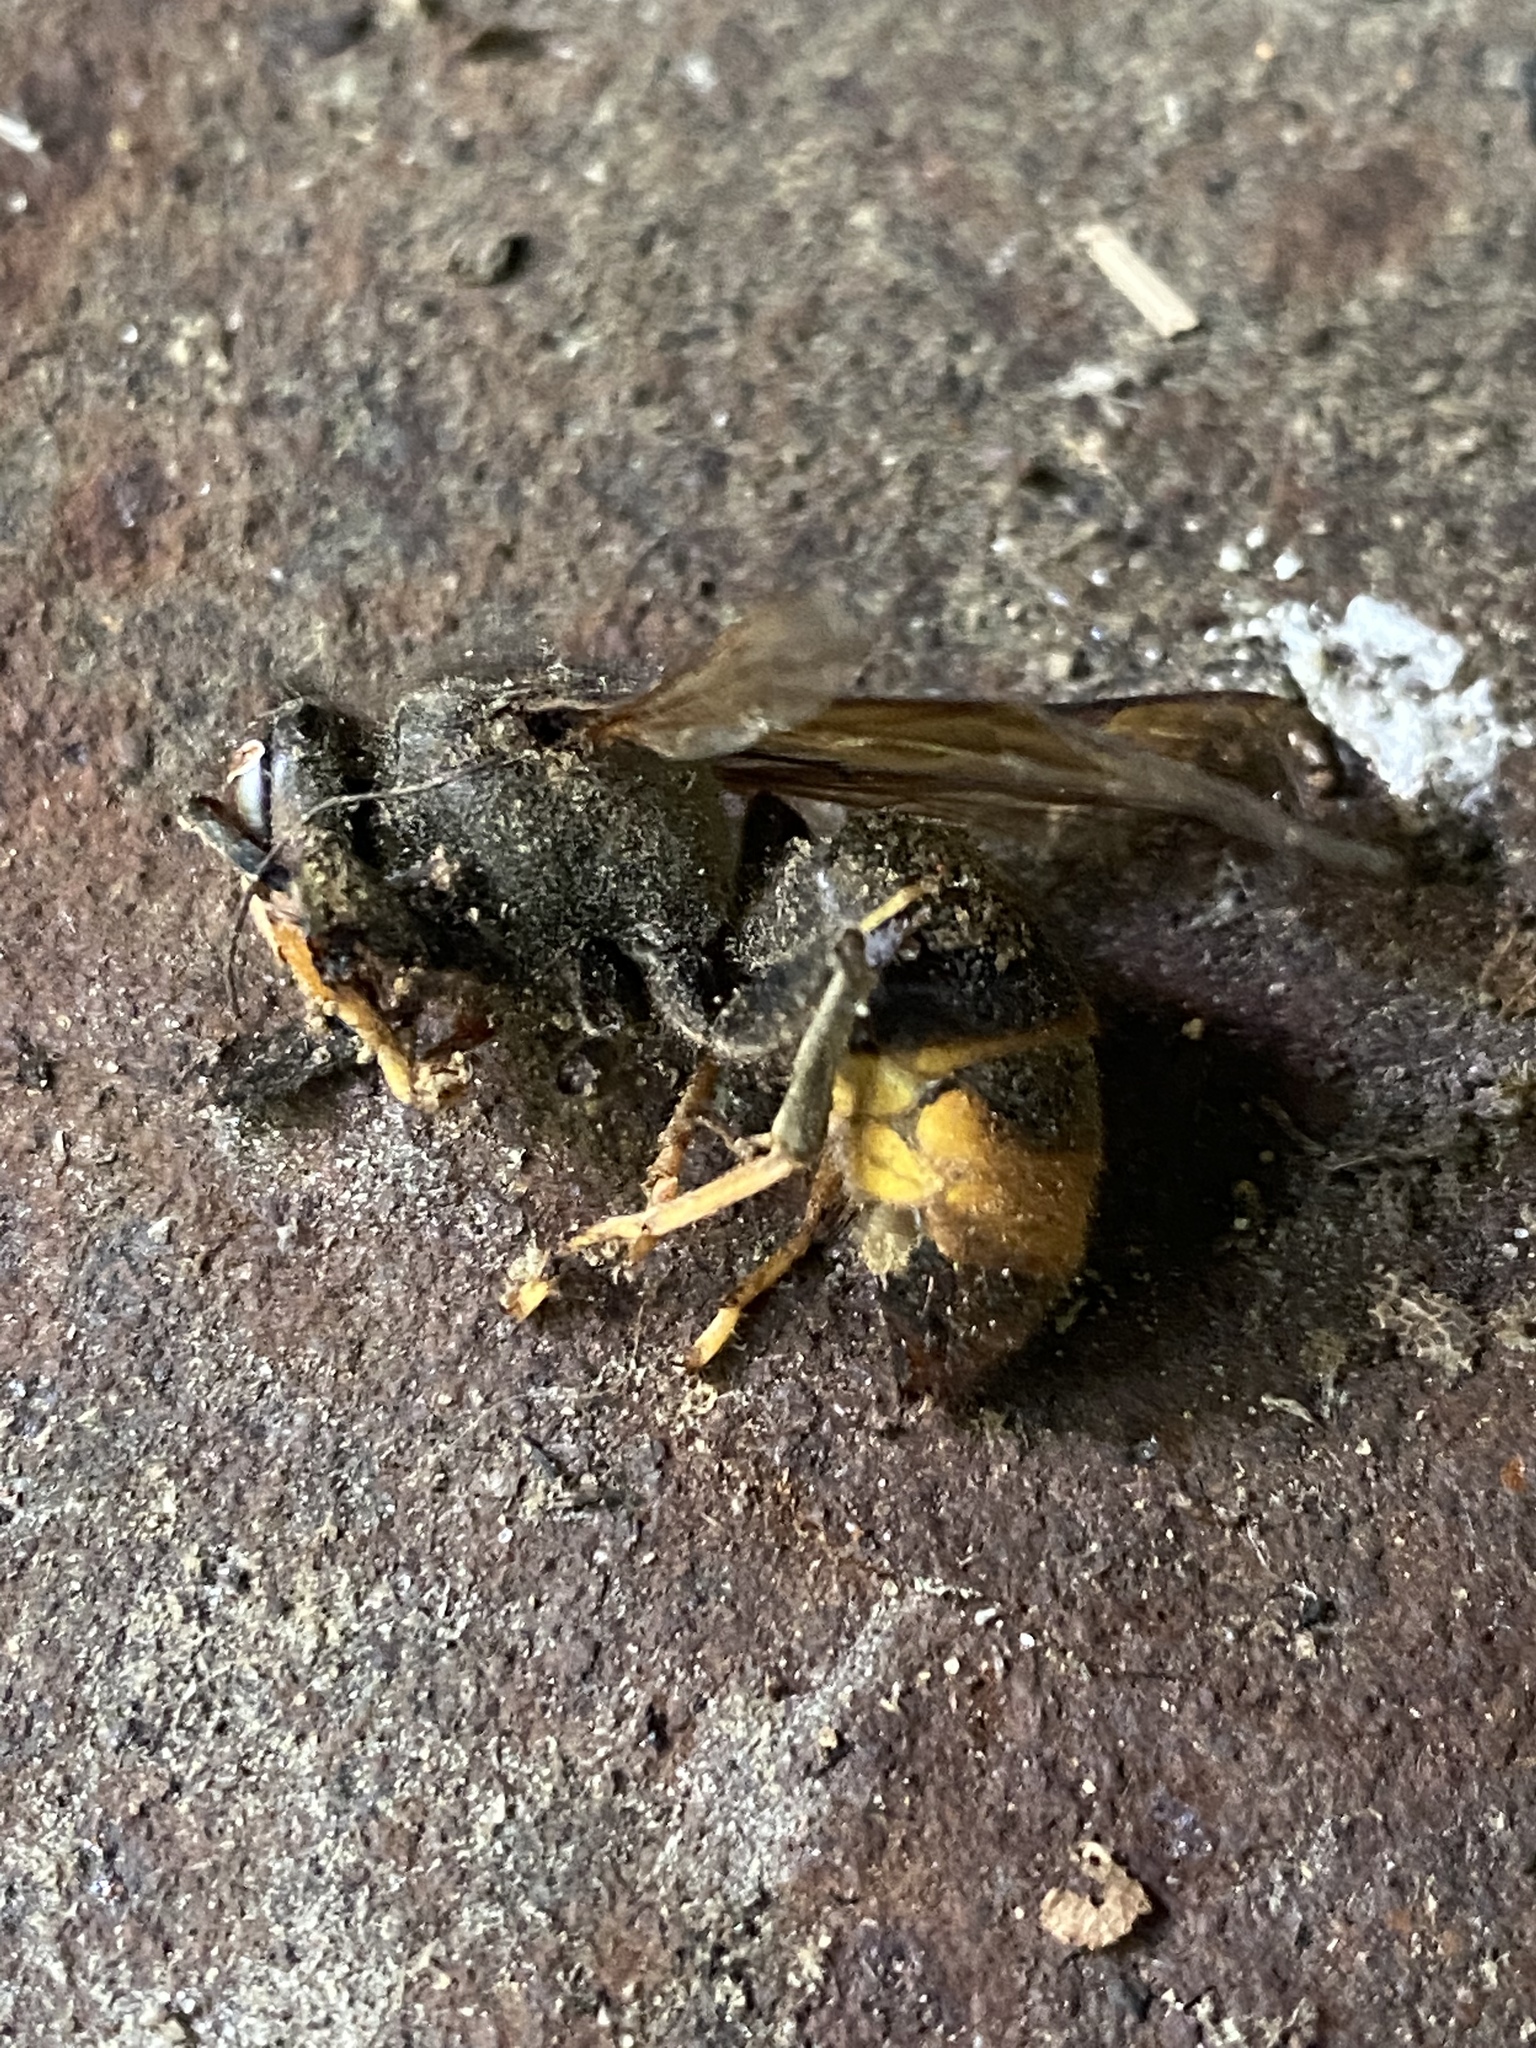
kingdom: Animalia
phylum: Arthropoda
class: Insecta
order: Hymenoptera
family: Vespidae
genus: Vespa
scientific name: Vespa velutina
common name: Asian hornet
